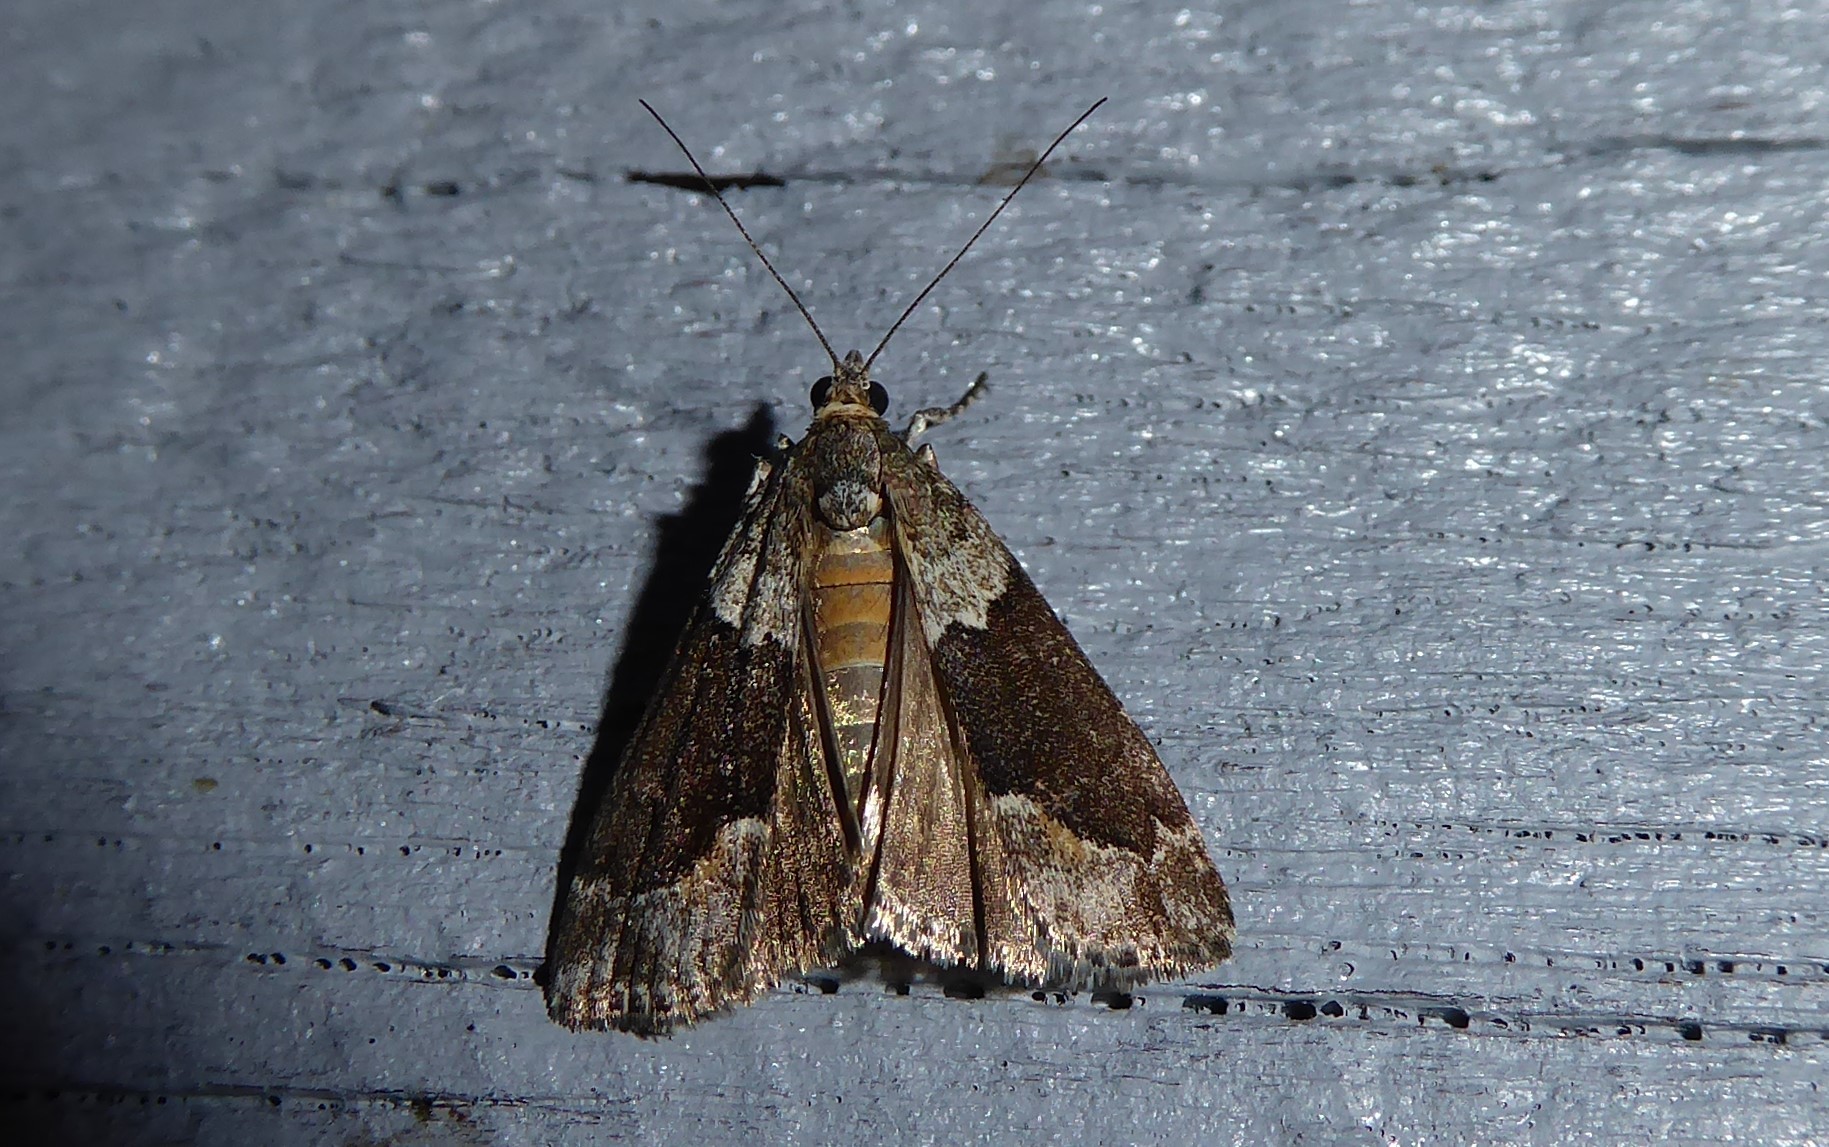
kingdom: Animalia
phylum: Arthropoda
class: Insecta
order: Lepidoptera
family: Crambidae
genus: Eudonia
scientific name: Eudonia submarginalis
